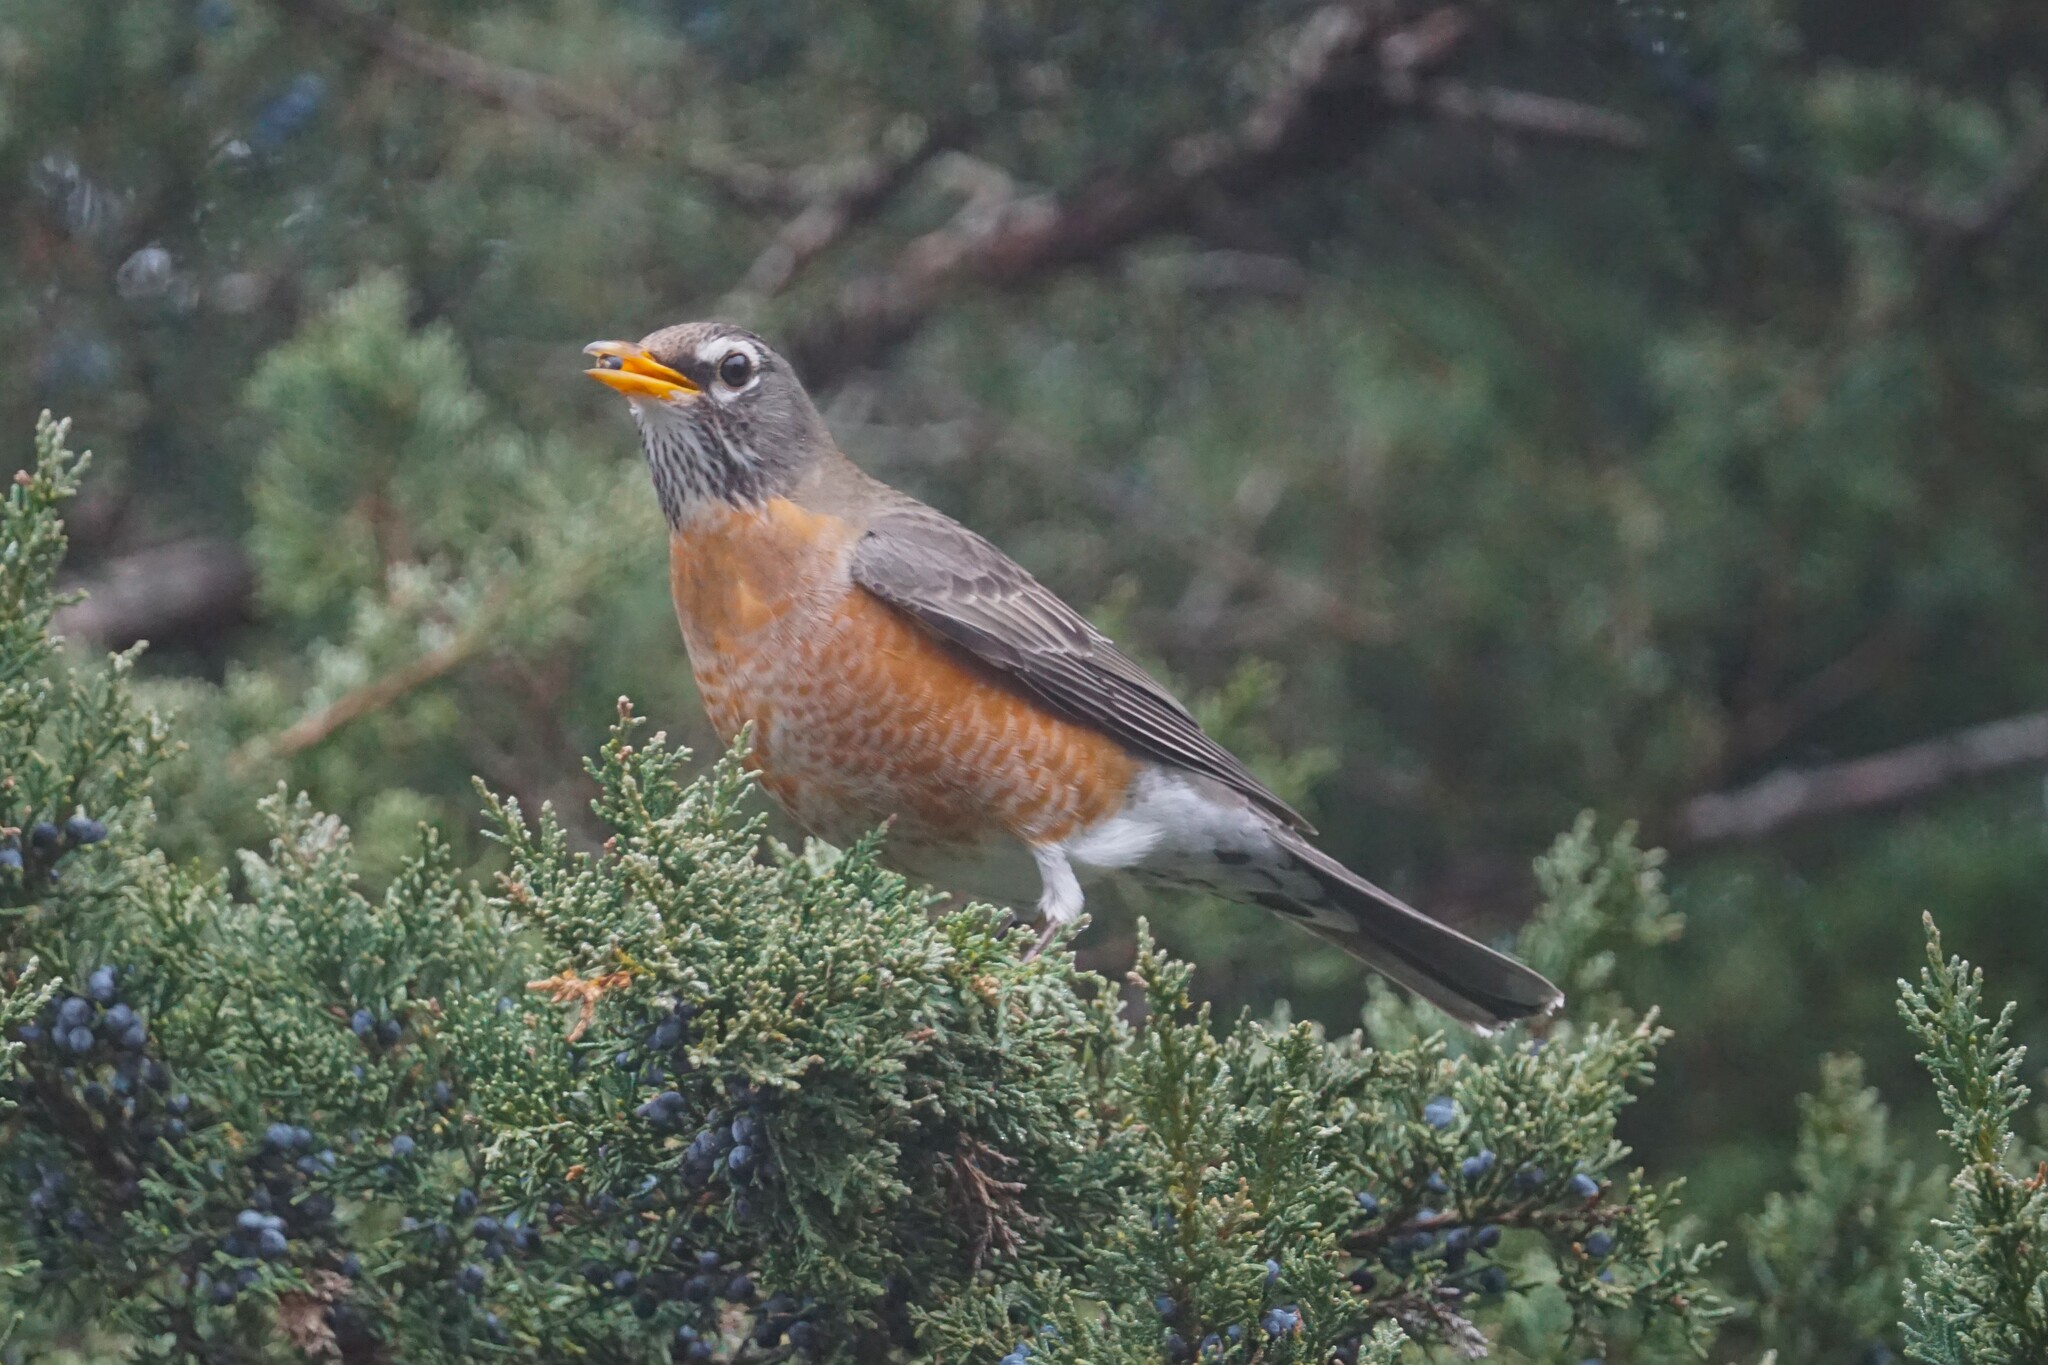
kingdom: Animalia
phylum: Chordata
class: Aves
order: Passeriformes
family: Turdidae
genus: Turdus
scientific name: Turdus migratorius
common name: American robin
